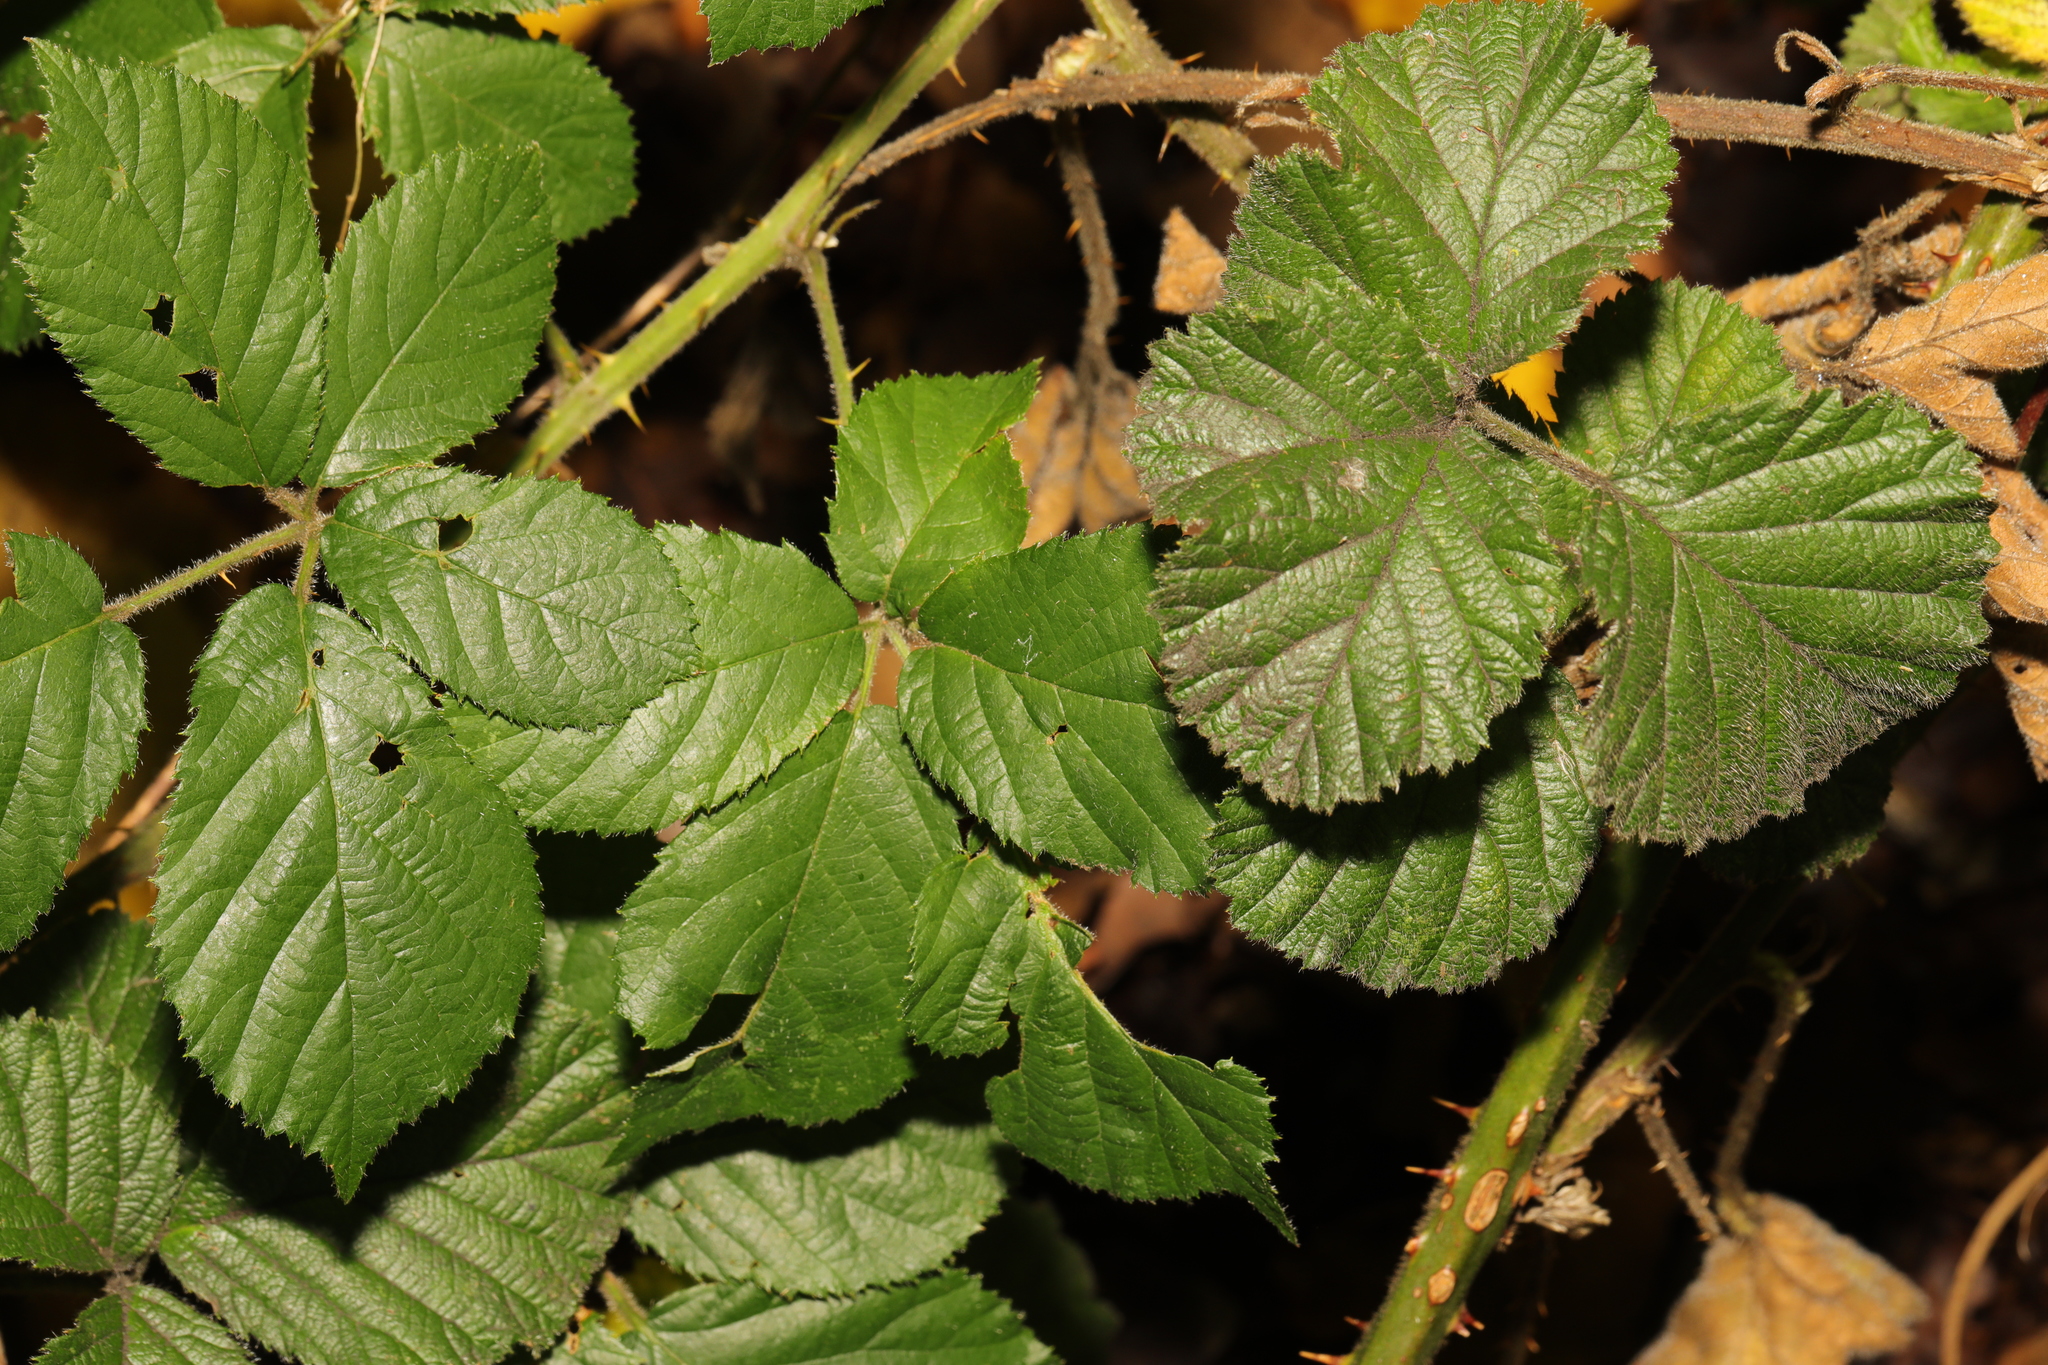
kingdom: Plantae
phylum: Tracheophyta
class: Magnoliopsida
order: Rosales
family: Rosaceae
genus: Rubus
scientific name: Rubus vestitus
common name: European blackberry
